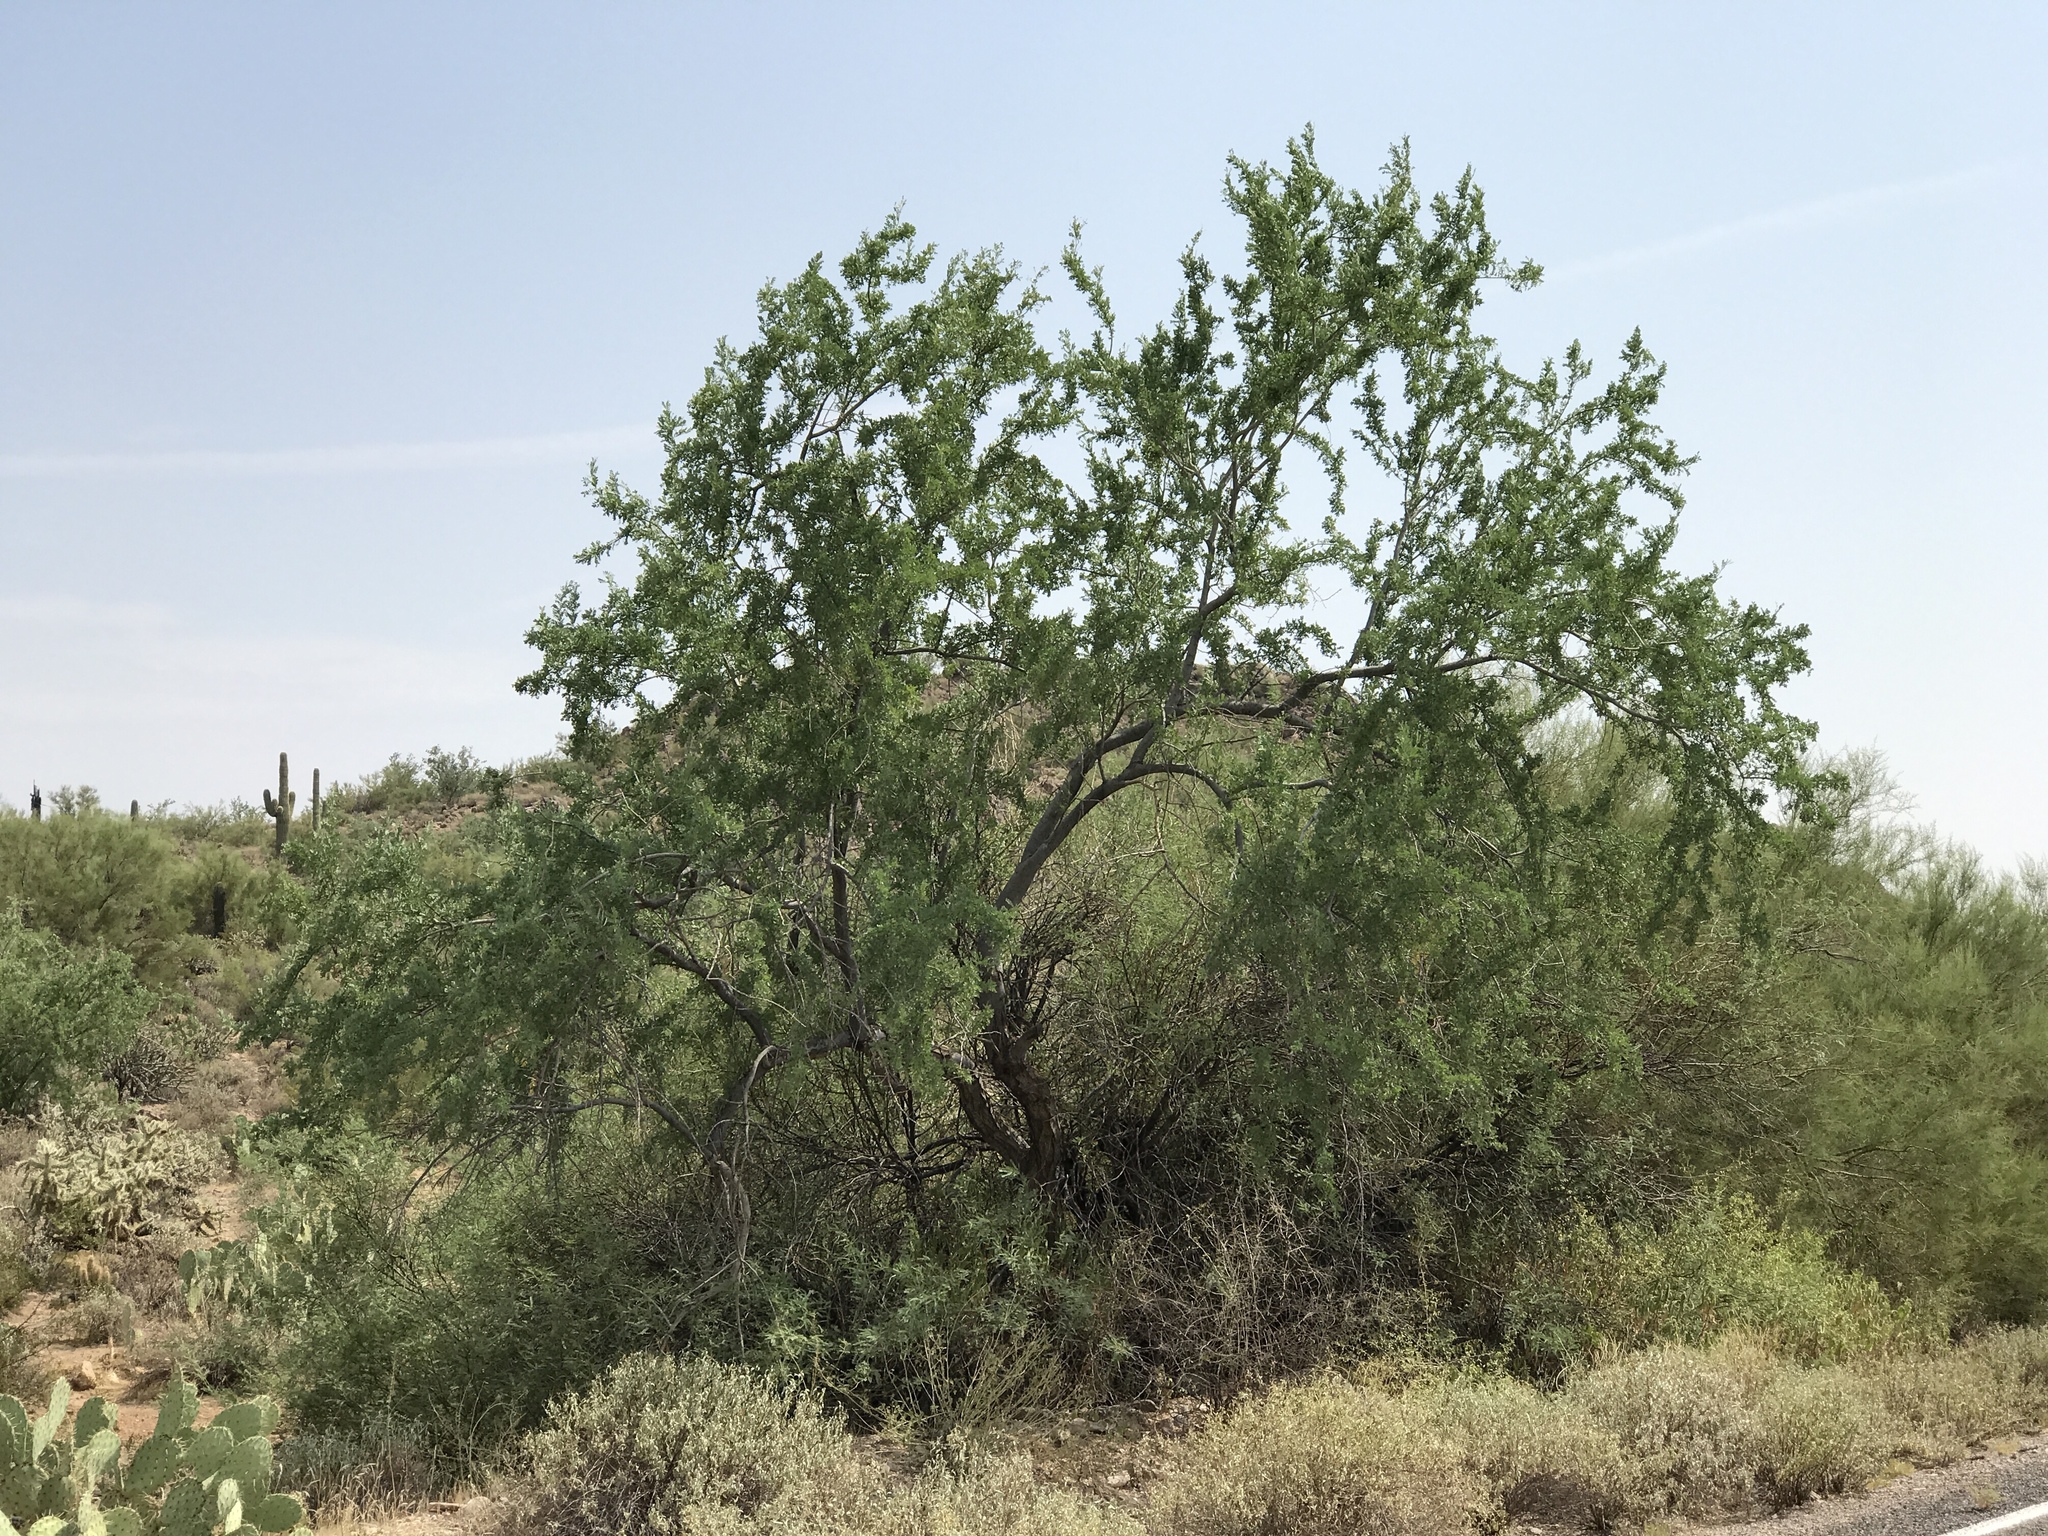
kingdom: Plantae
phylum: Tracheophyta
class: Magnoliopsida
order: Fabales
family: Fabaceae
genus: Olneya
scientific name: Olneya tesota
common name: Desert ironwood
